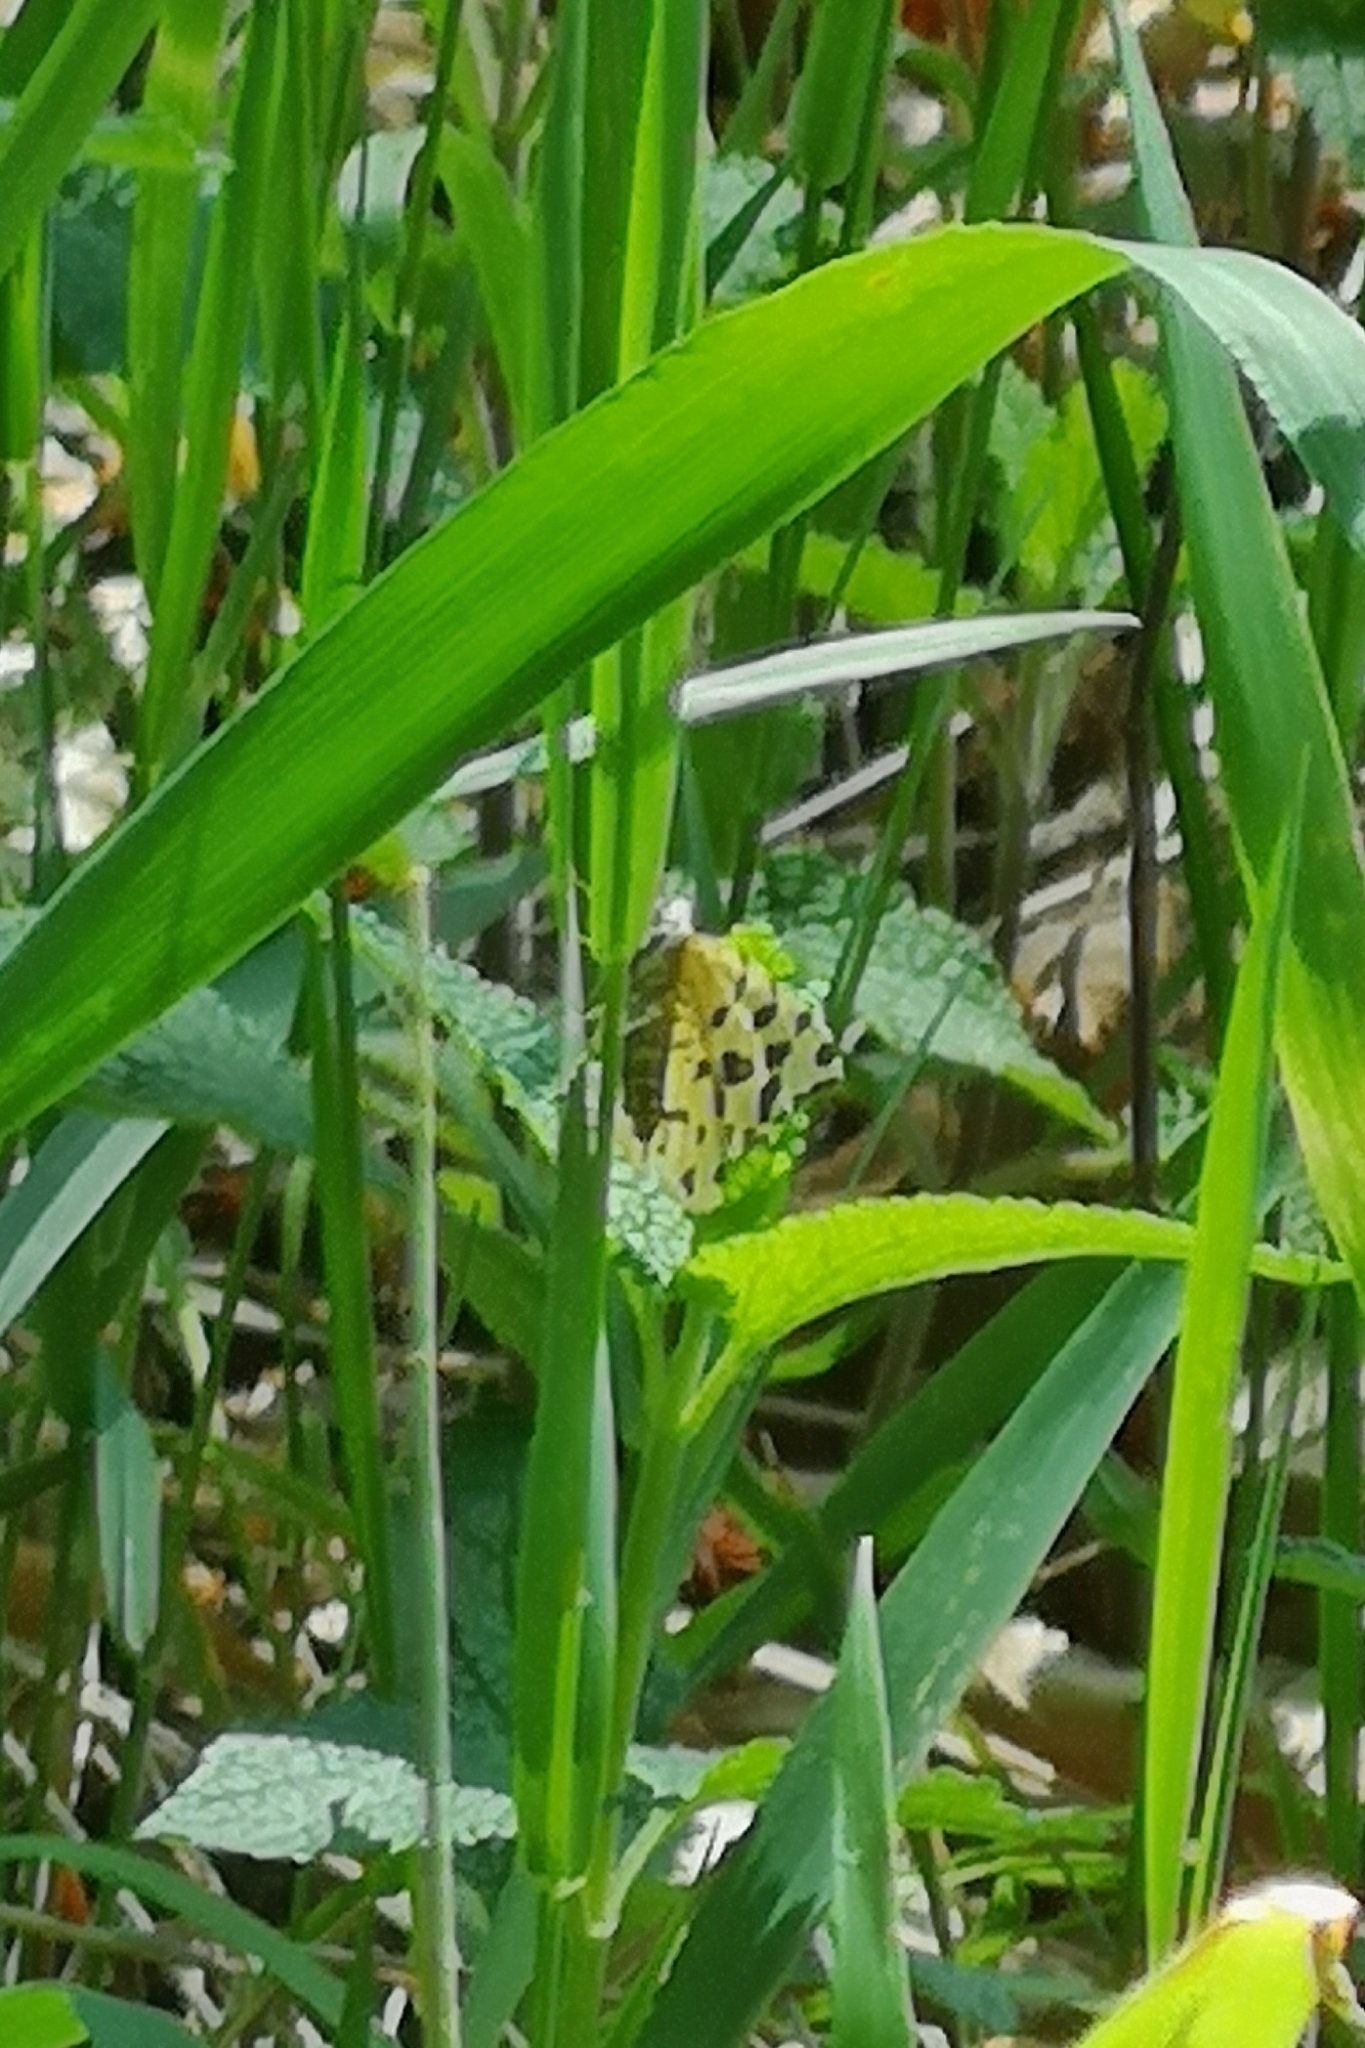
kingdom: Animalia
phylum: Arthropoda
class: Insecta
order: Lepidoptera
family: Geometridae
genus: Pseudopanthera
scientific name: Pseudopanthera macularia
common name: Speckled yellow
